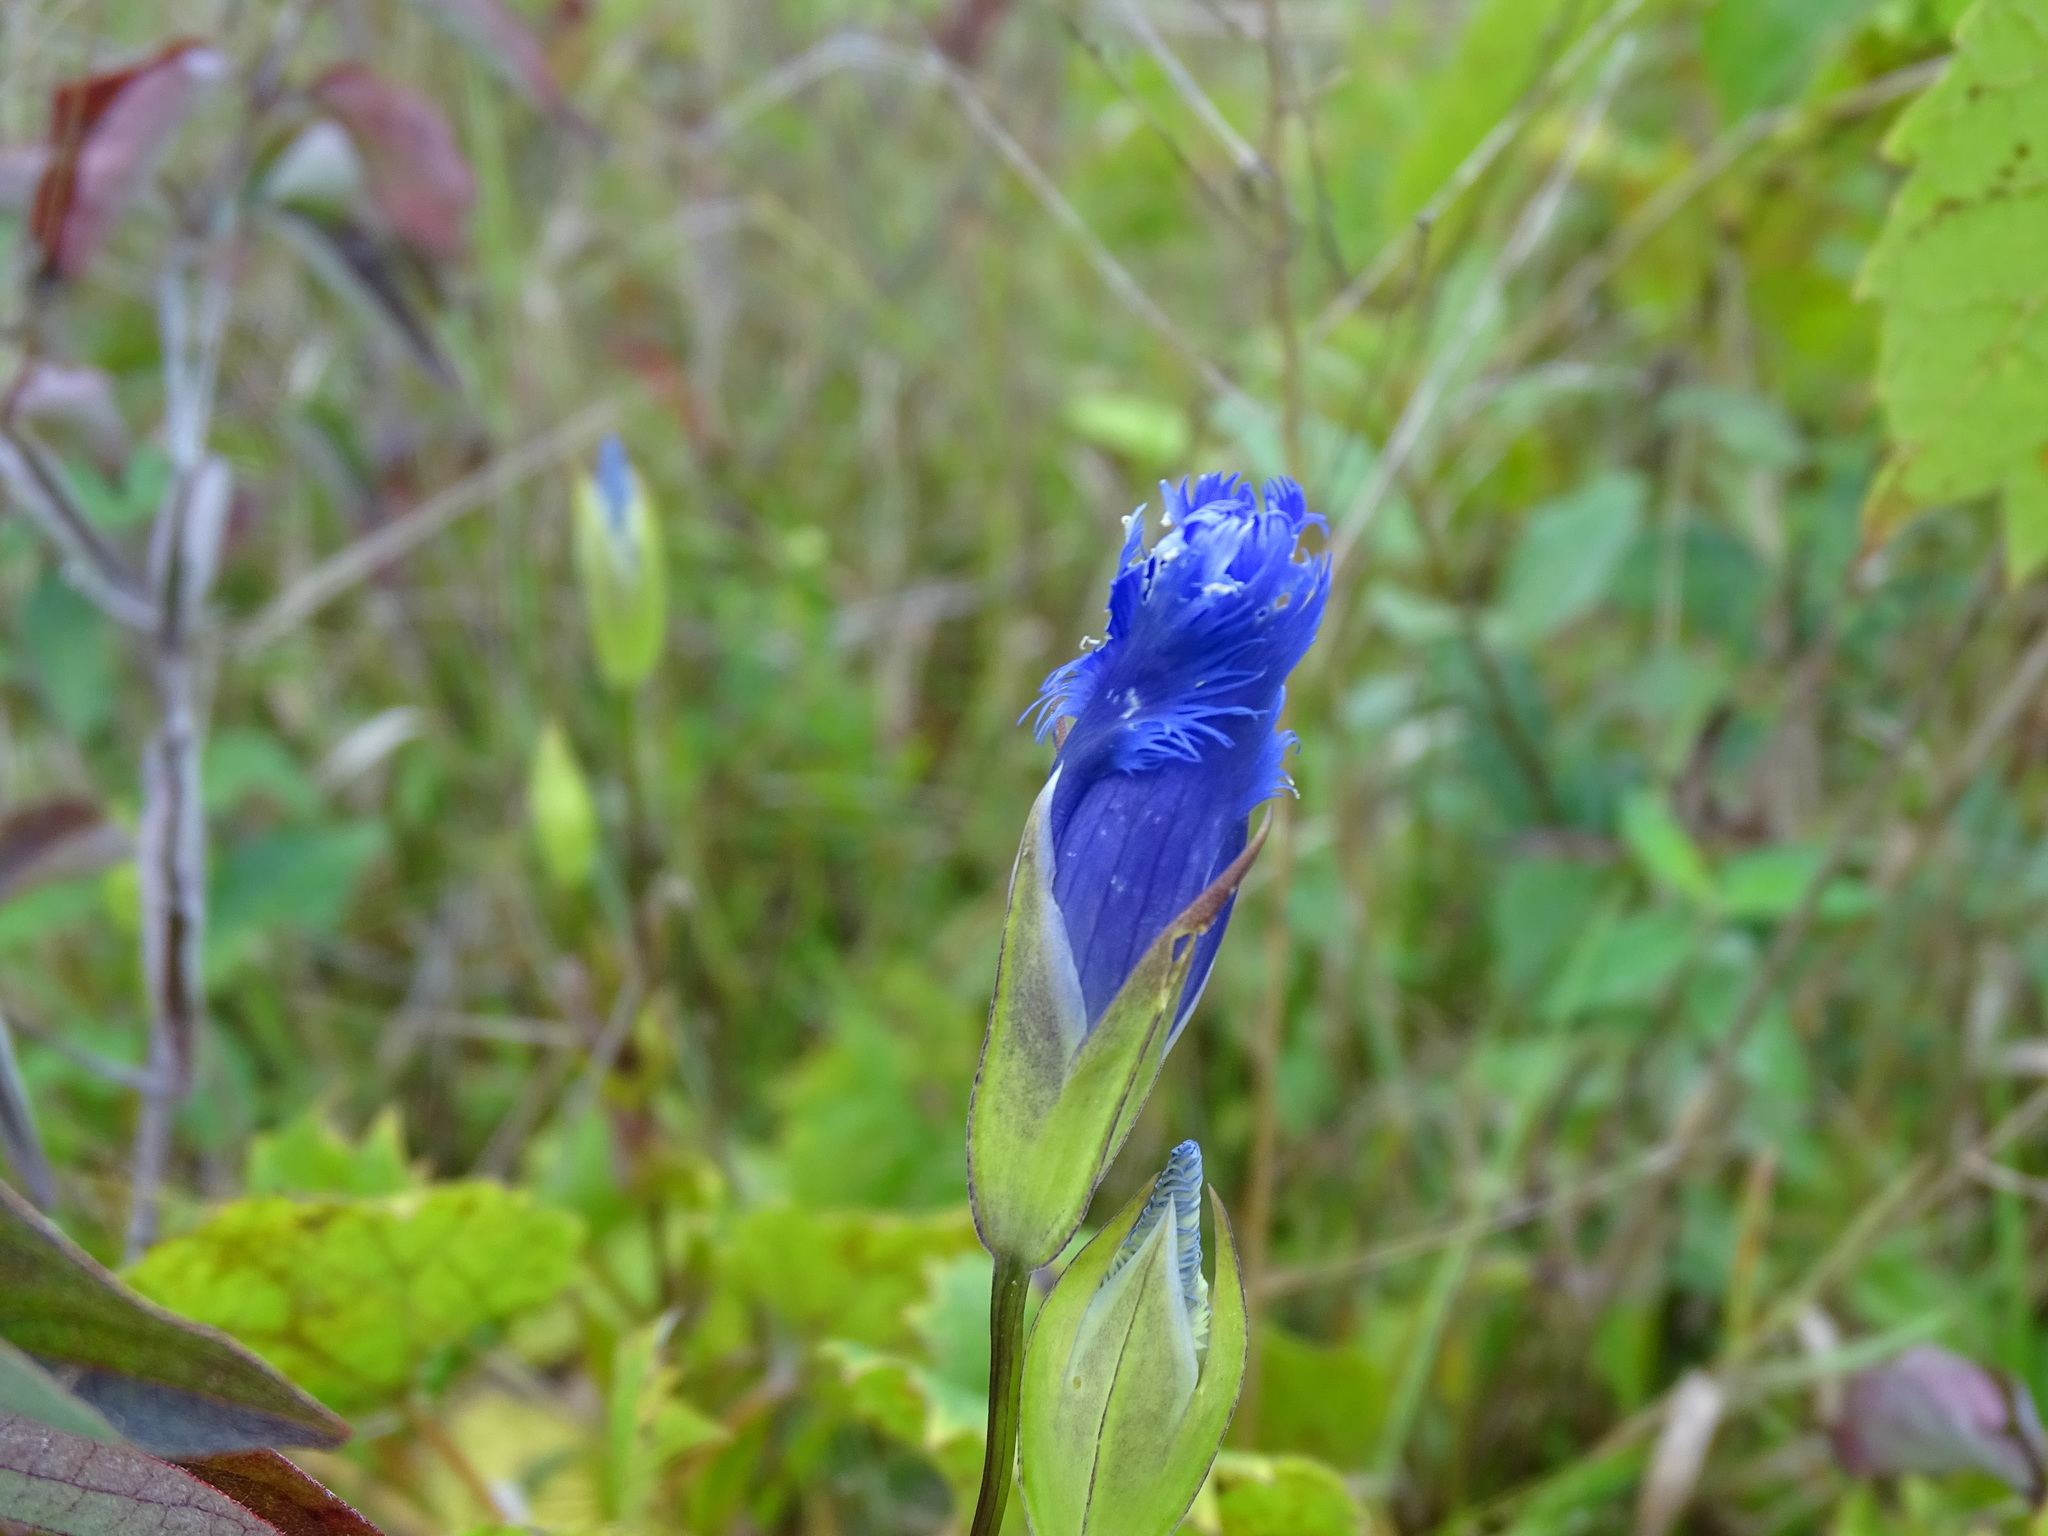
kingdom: Plantae
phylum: Tracheophyta
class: Magnoliopsida
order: Gentianales
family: Gentianaceae
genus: Gentianopsis
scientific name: Gentianopsis crinita
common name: Fringed-gentian
